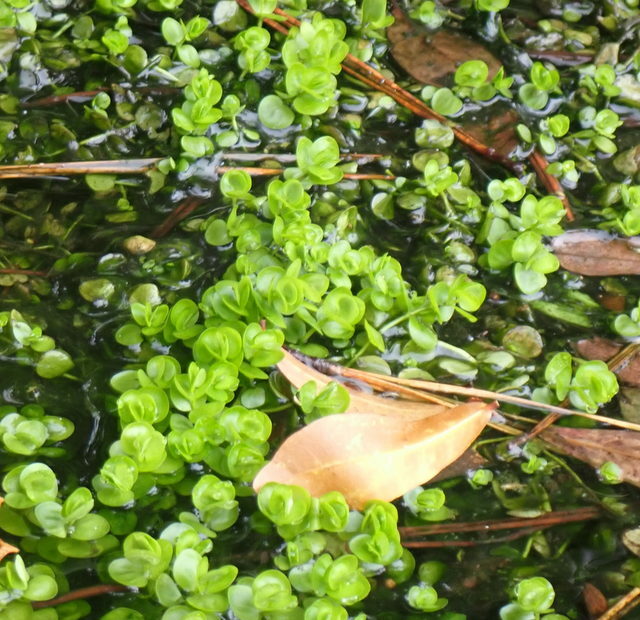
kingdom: Plantae
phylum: Tracheophyta
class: Magnoliopsida
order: Lamiales
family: Linderniaceae
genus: Micranthemum
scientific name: Micranthemum umbrosum
